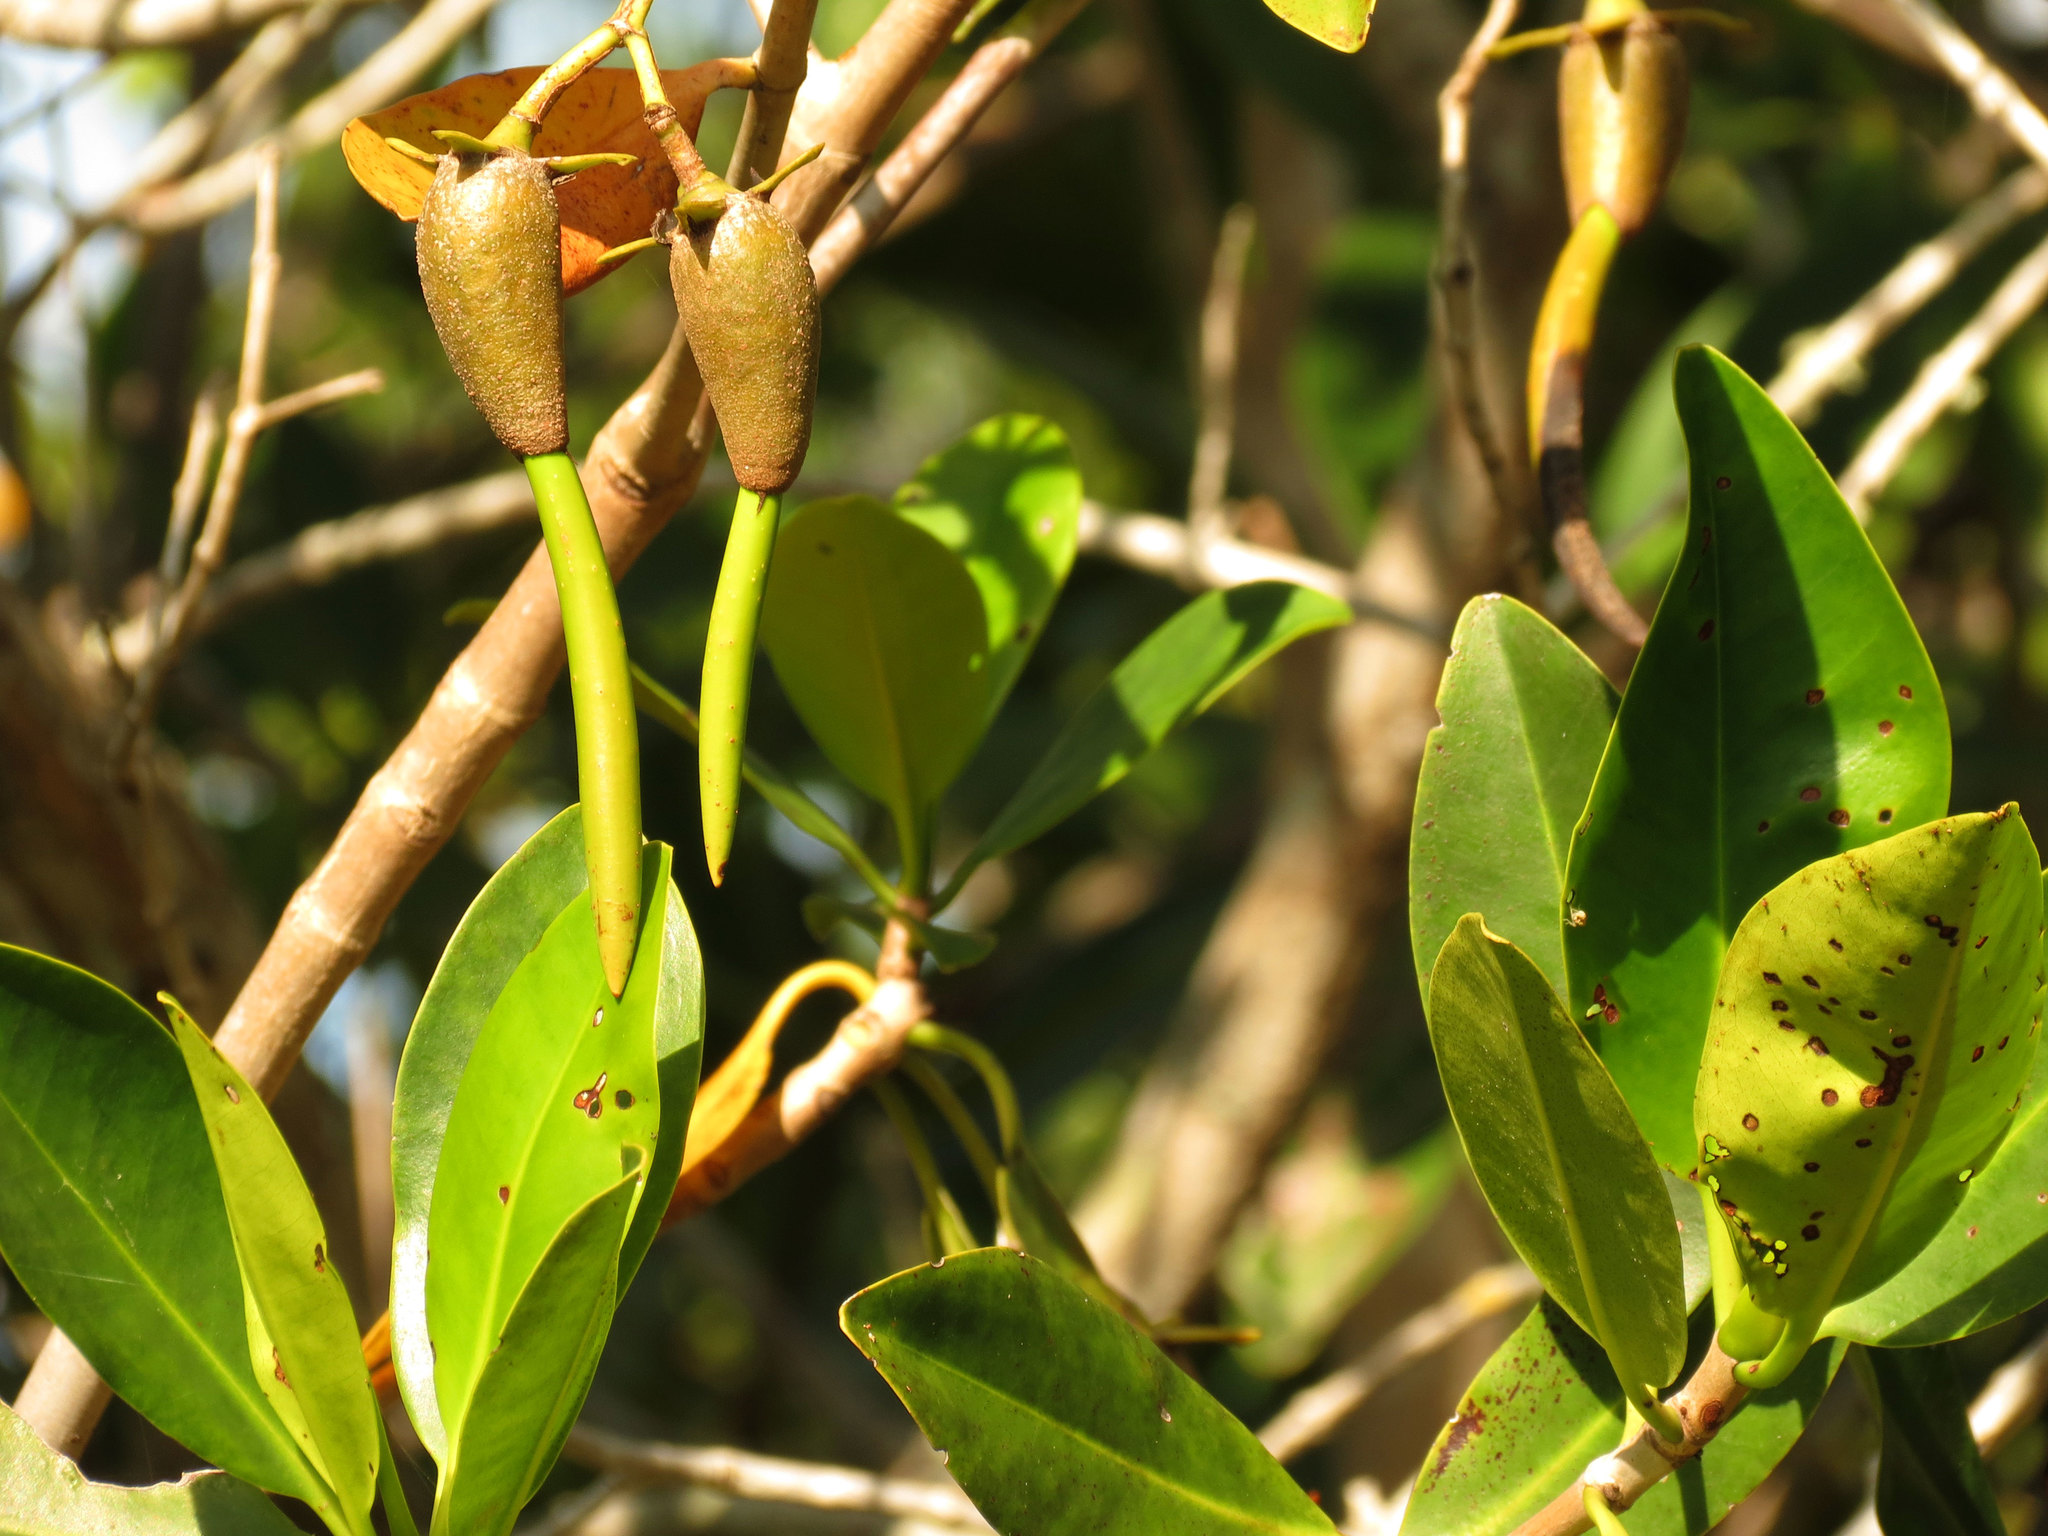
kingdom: Plantae
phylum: Tracheophyta
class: Magnoliopsida
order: Malpighiales
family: Rhizophoraceae
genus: Rhizophora
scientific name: Rhizophora mangle
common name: Red mangrove
